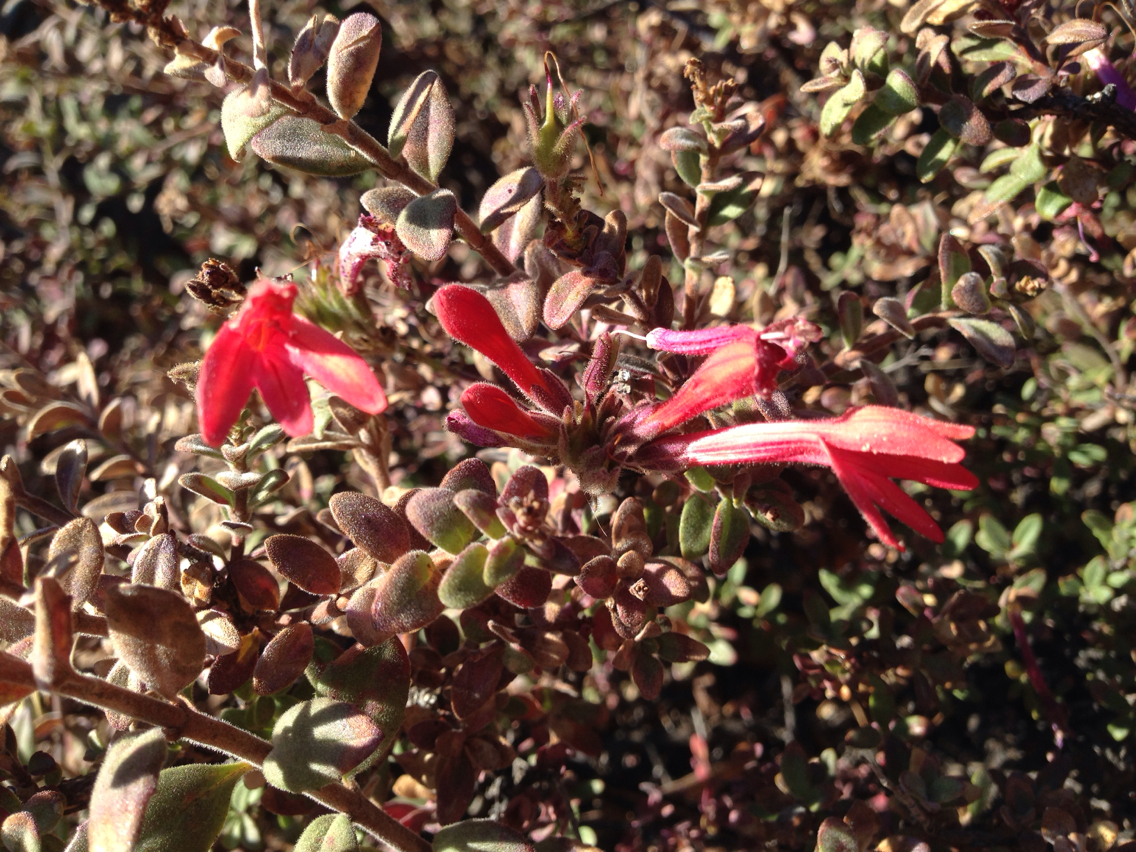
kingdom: Plantae
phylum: Tracheophyta
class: Magnoliopsida
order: Lamiales
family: Plantaginaceae
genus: Keckiella
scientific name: Keckiella corymbosa
